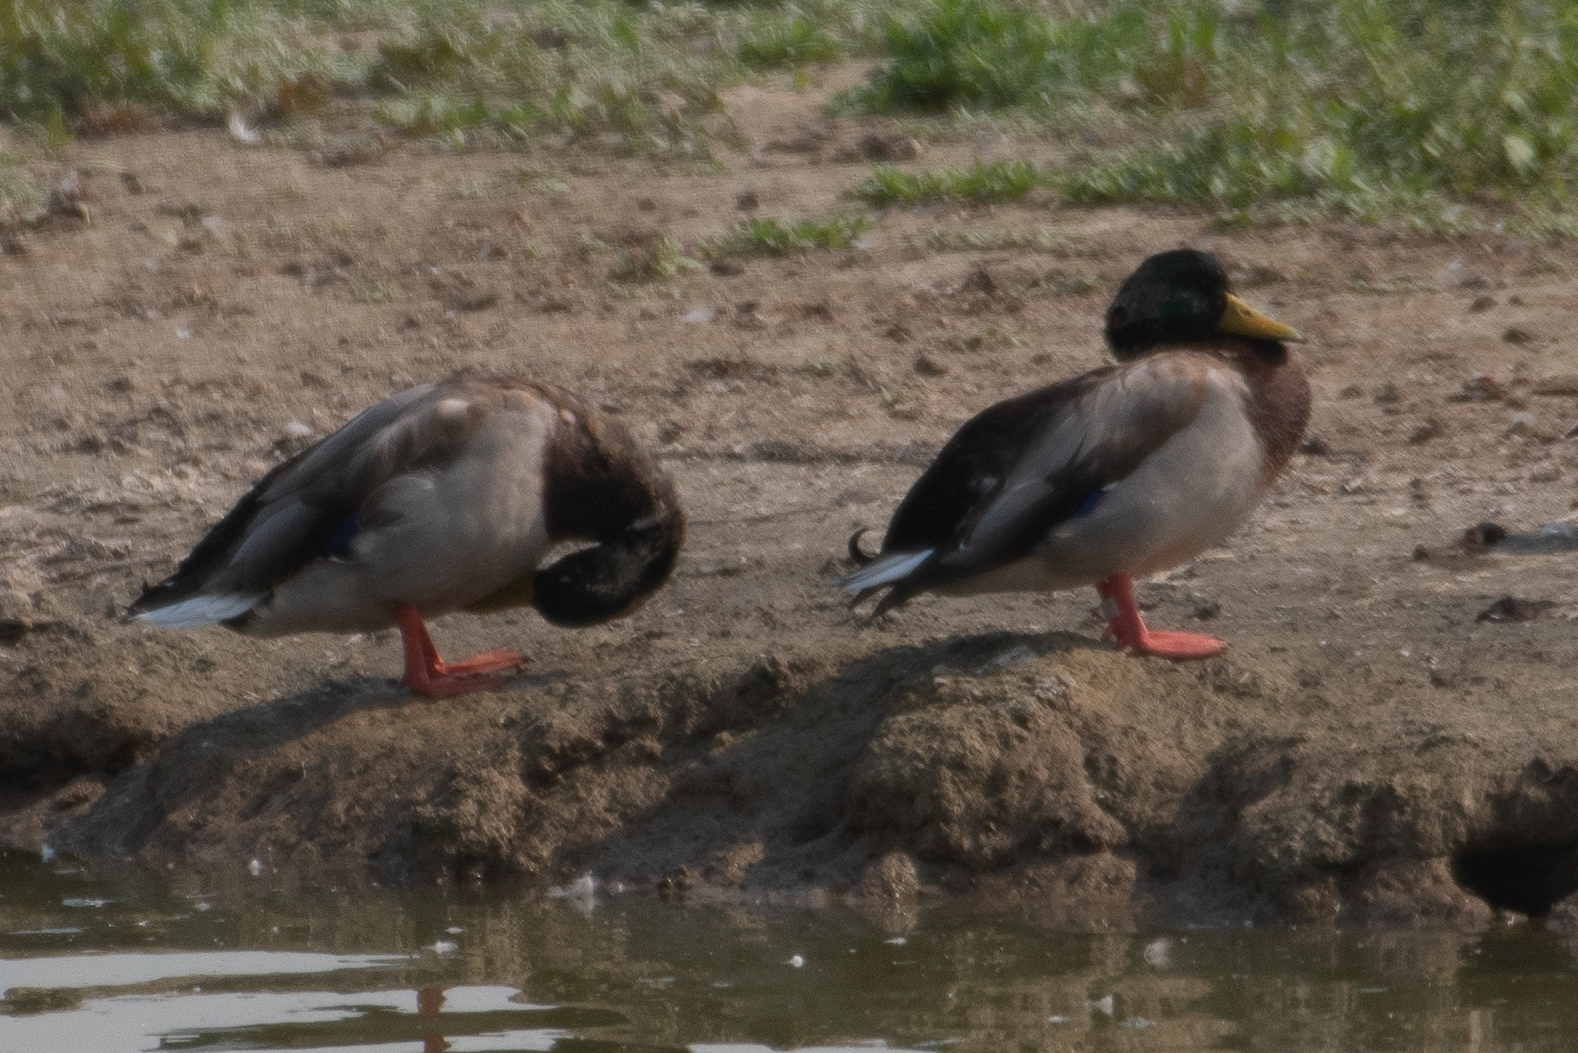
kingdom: Animalia
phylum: Chordata
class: Aves
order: Anseriformes
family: Anatidae
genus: Anas
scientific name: Anas platyrhynchos
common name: Mallard
